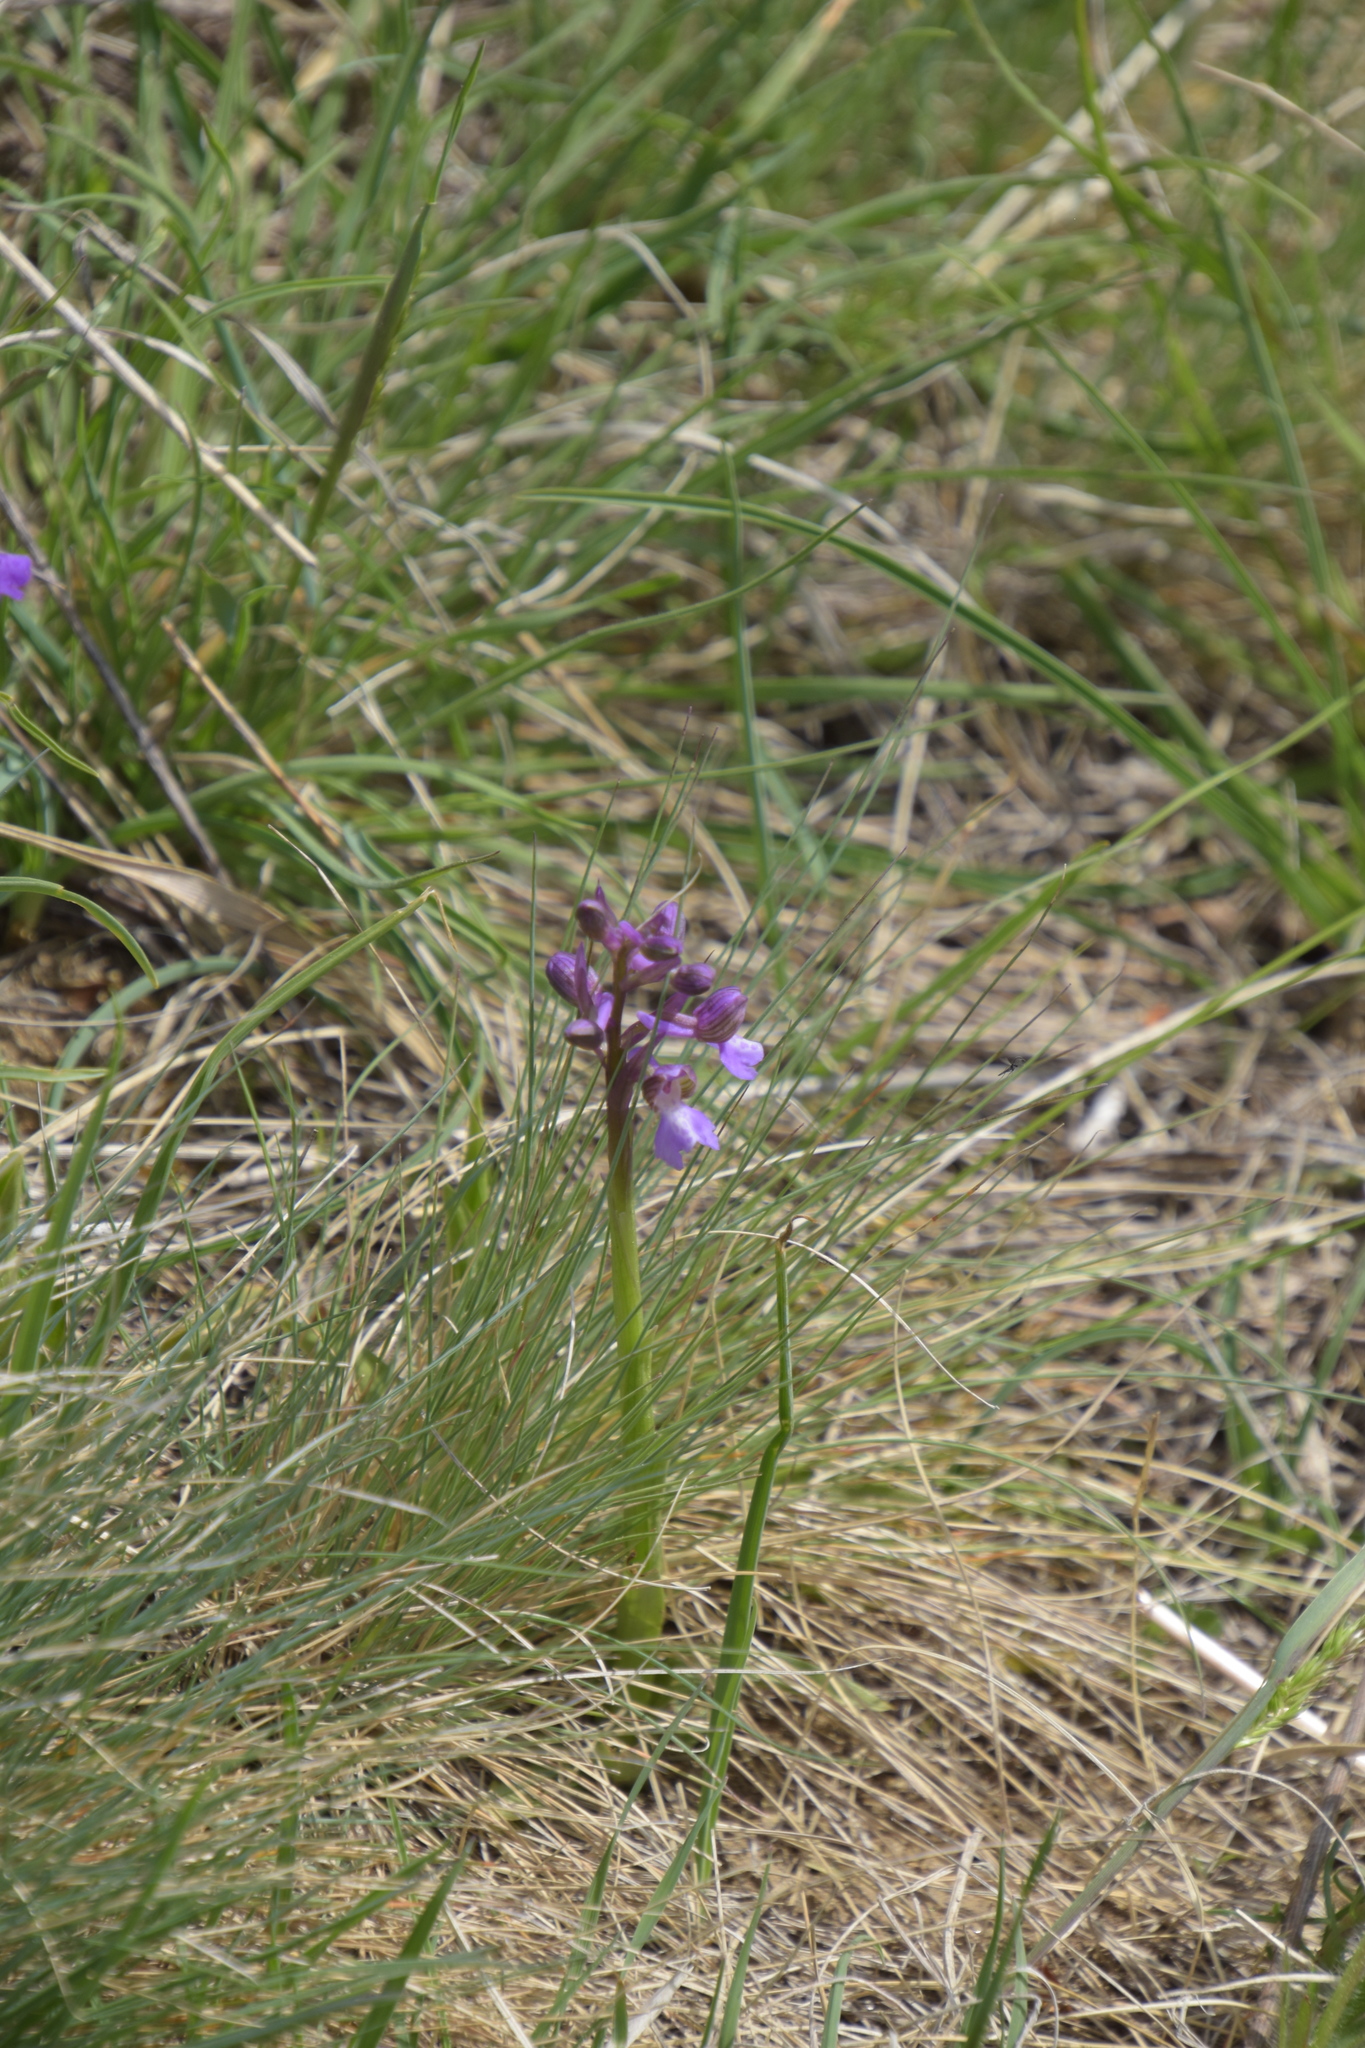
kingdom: Plantae
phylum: Tracheophyta
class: Liliopsida
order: Asparagales
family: Orchidaceae
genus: Anacamptis
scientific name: Anacamptis morio
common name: Green-winged orchid
